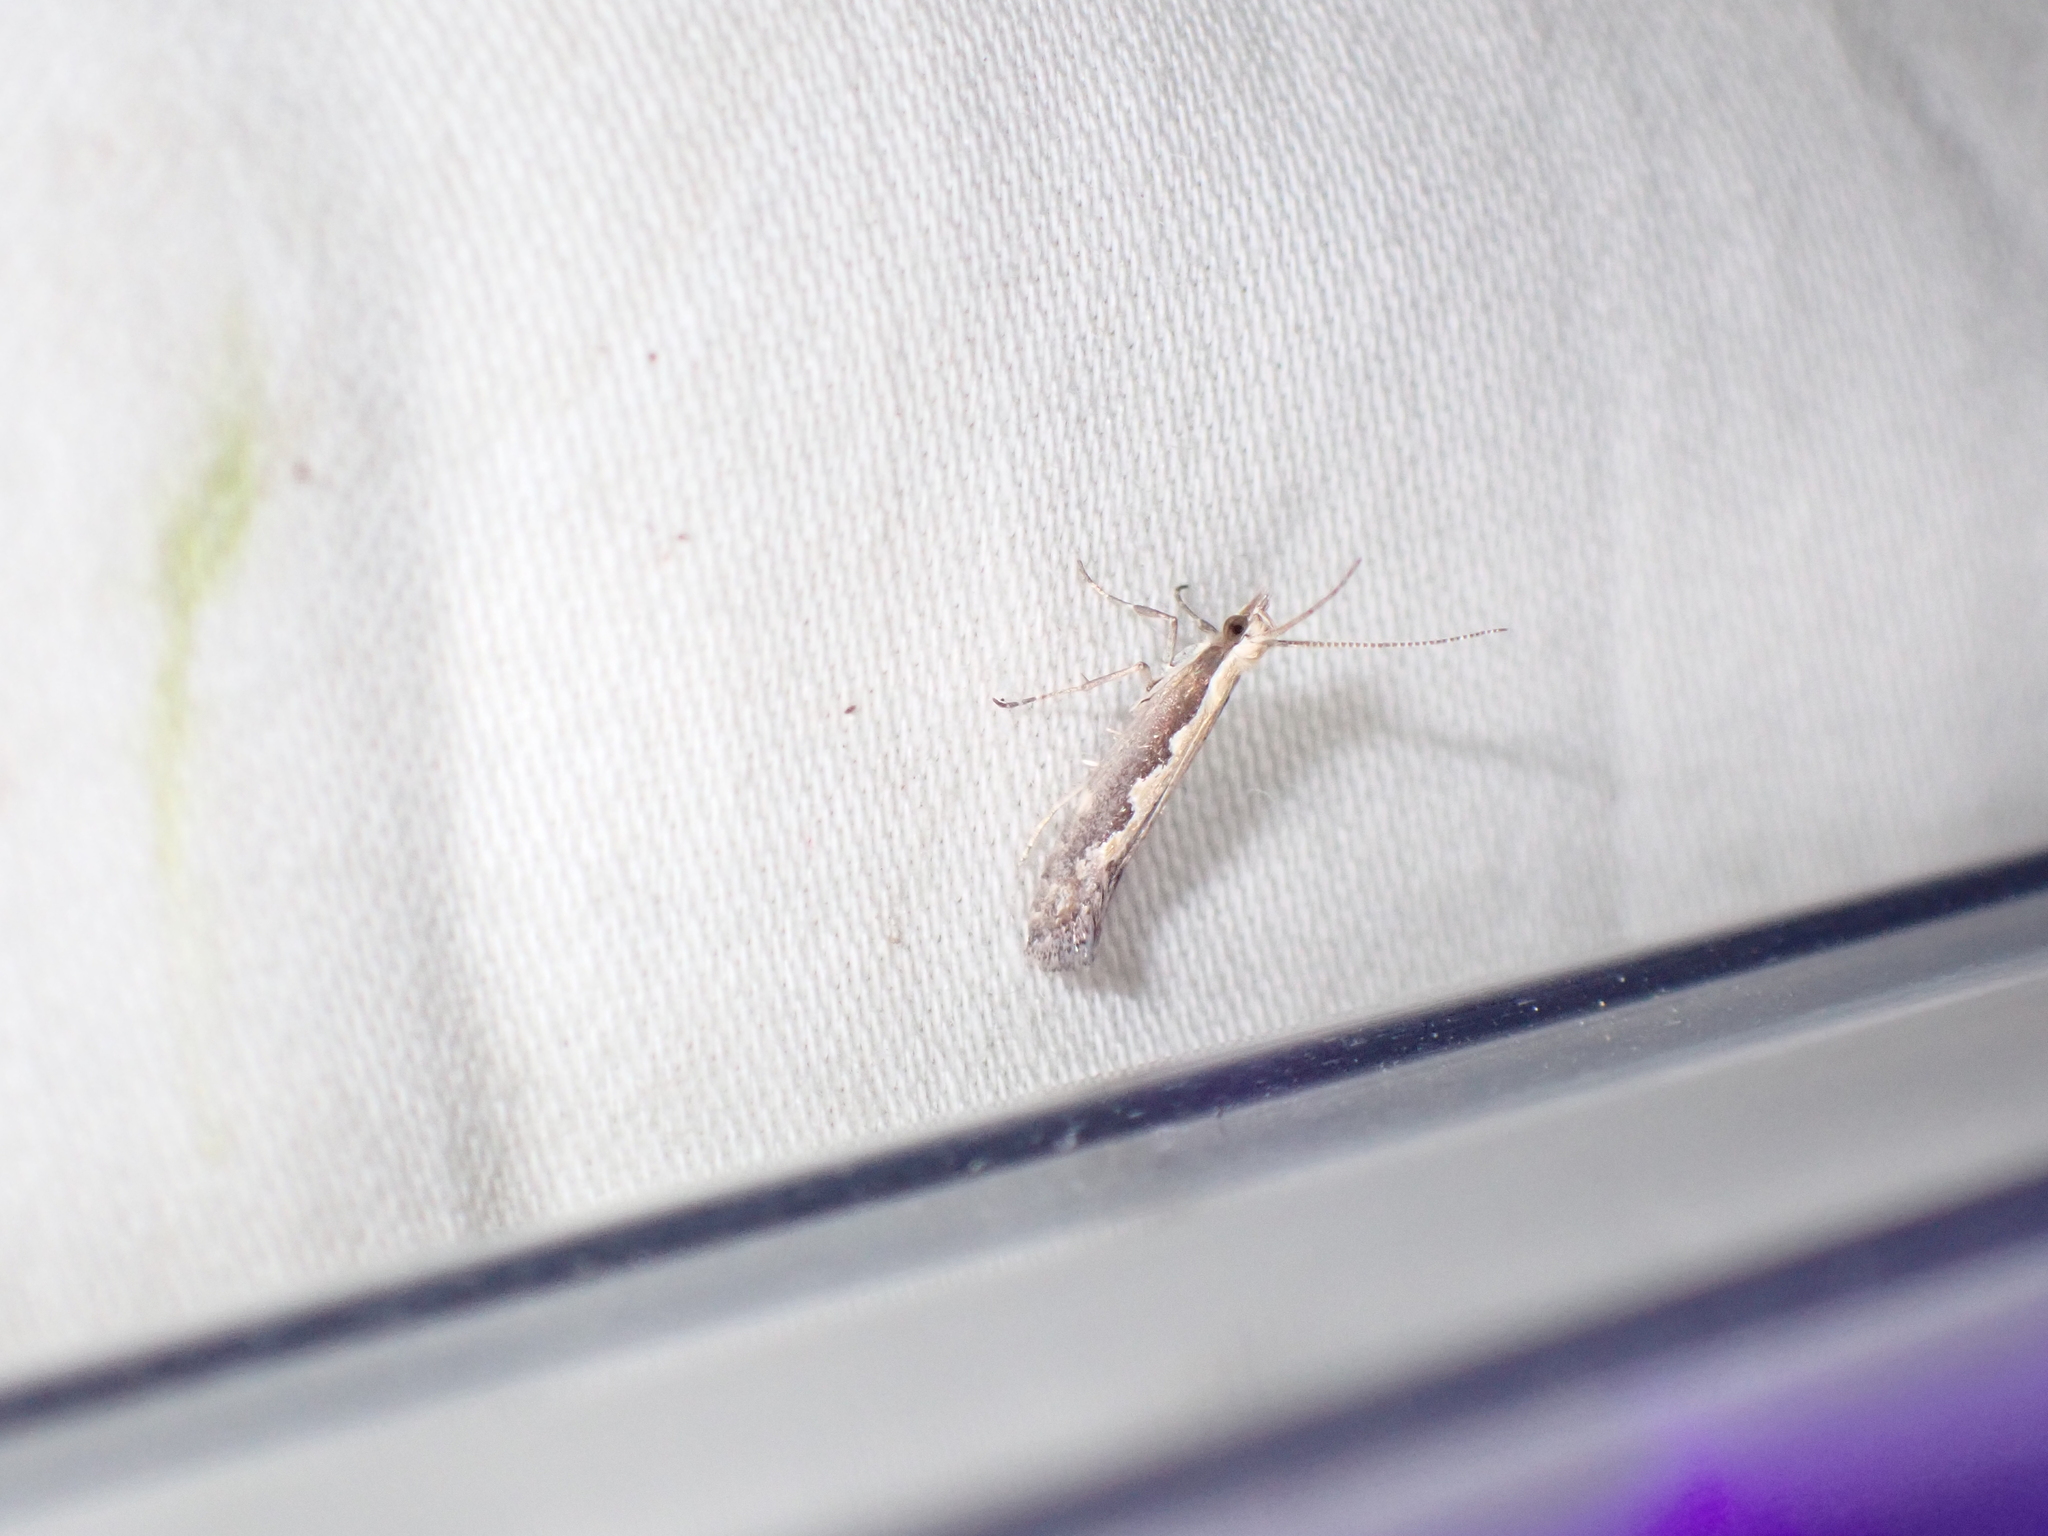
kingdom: Animalia
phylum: Arthropoda
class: Insecta
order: Lepidoptera
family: Plutellidae
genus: Plutella
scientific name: Plutella xylostella
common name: Diamond-back moth
